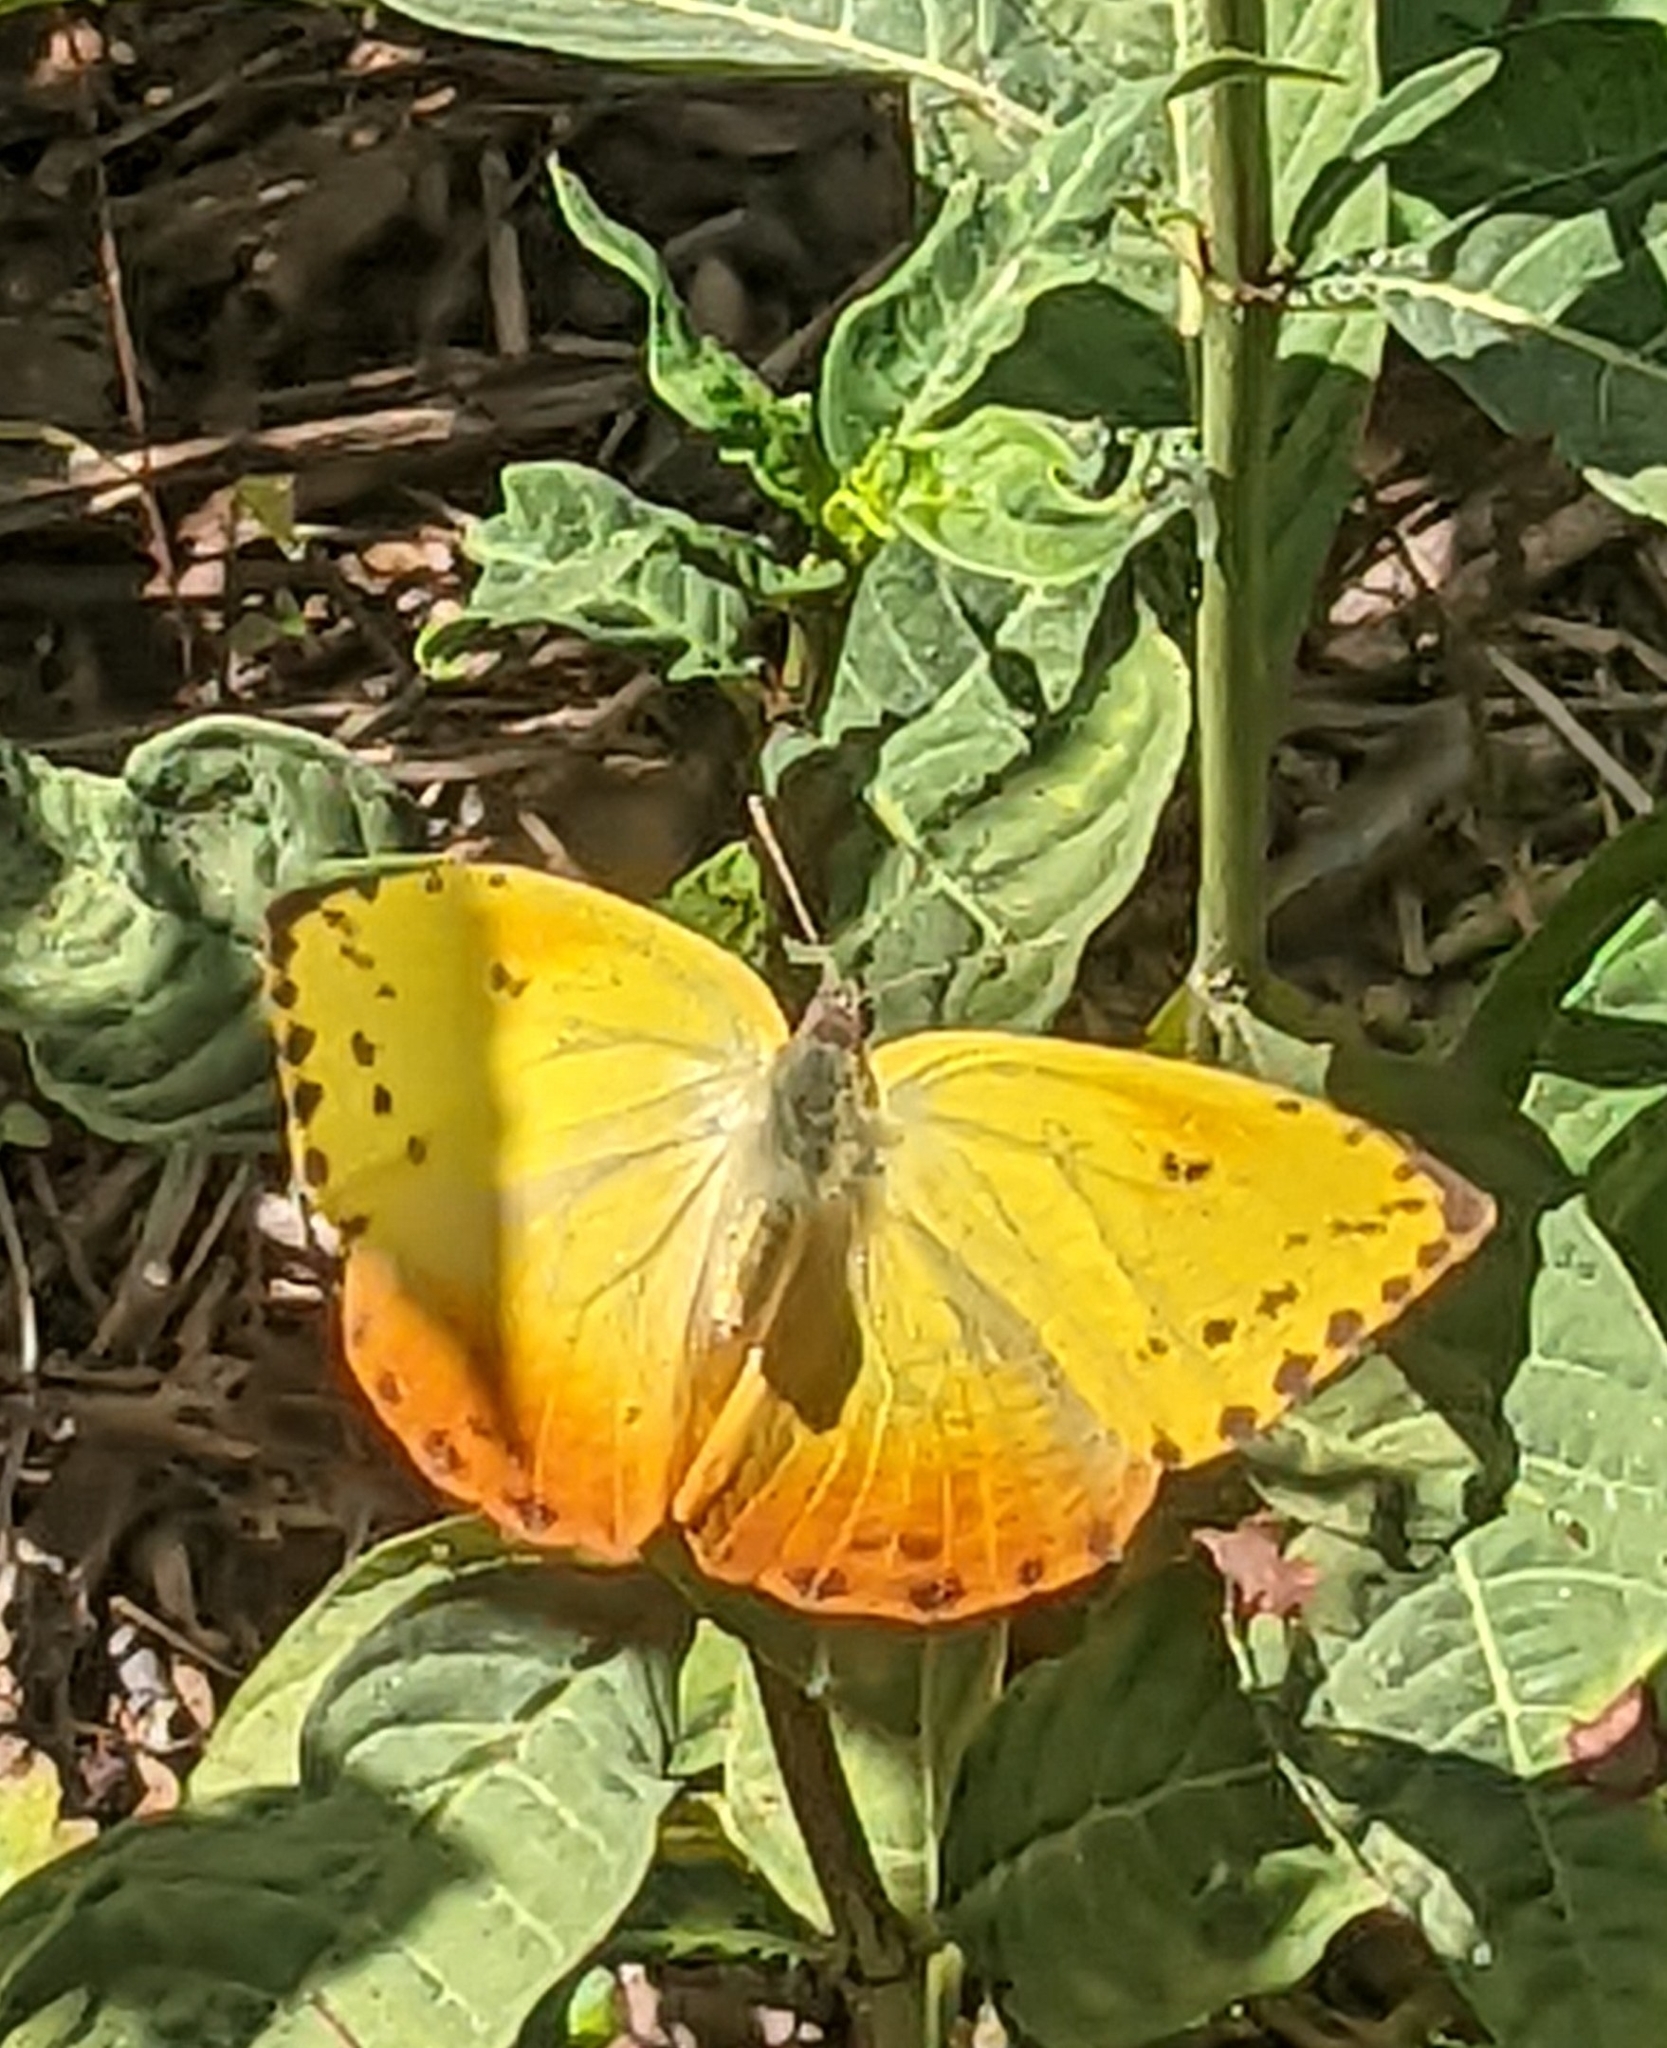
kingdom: Animalia
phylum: Arthropoda
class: Insecta
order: Lepidoptera
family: Pieridae
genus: Phoebis
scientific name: Phoebis philea
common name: Orange-barred giant sulphur
